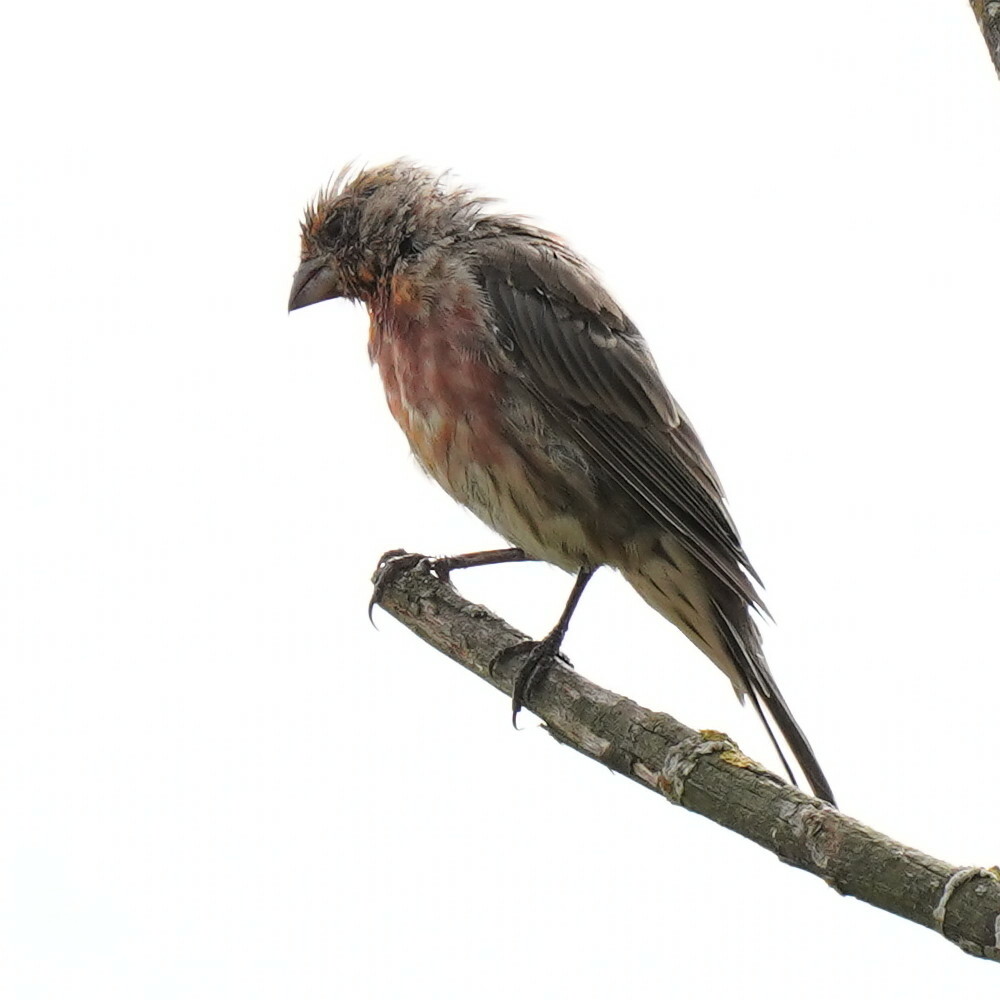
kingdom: Animalia
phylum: Chordata
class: Aves
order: Passeriformes
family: Fringillidae
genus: Haemorhous
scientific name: Haemorhous mexicanus
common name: House finch
